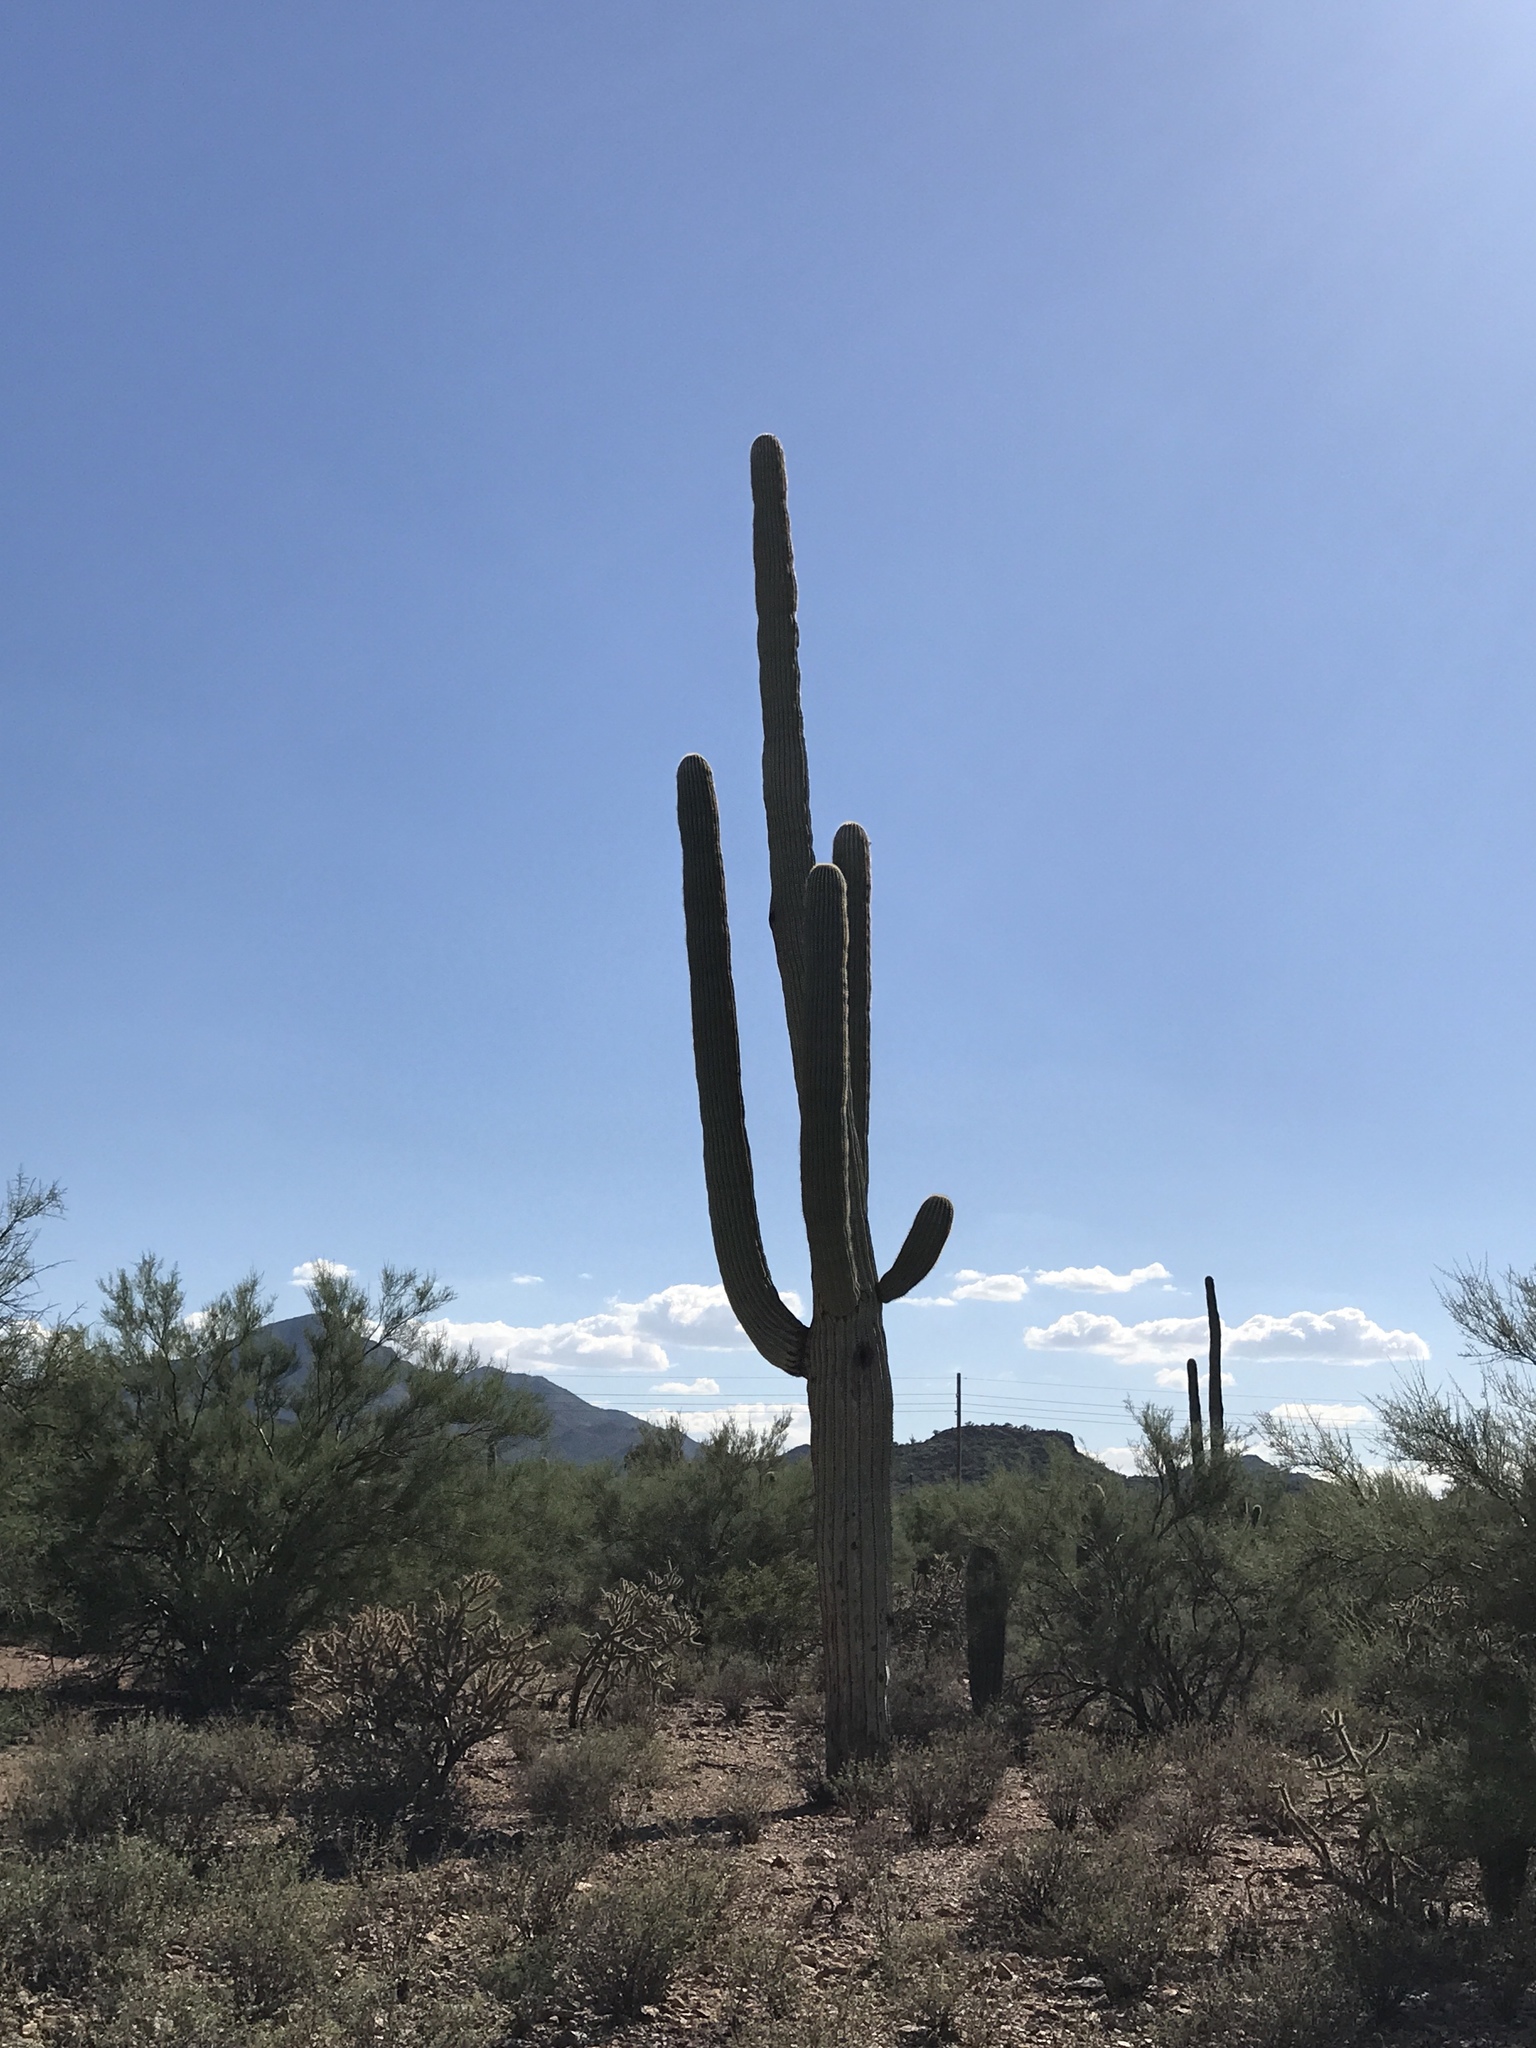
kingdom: Plantae
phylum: Tracheophyta
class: Magnoliopsida
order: Caryophyllales
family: Cactaceae
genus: Carnegiea
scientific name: Carnegiea gigantea
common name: Saguaro
